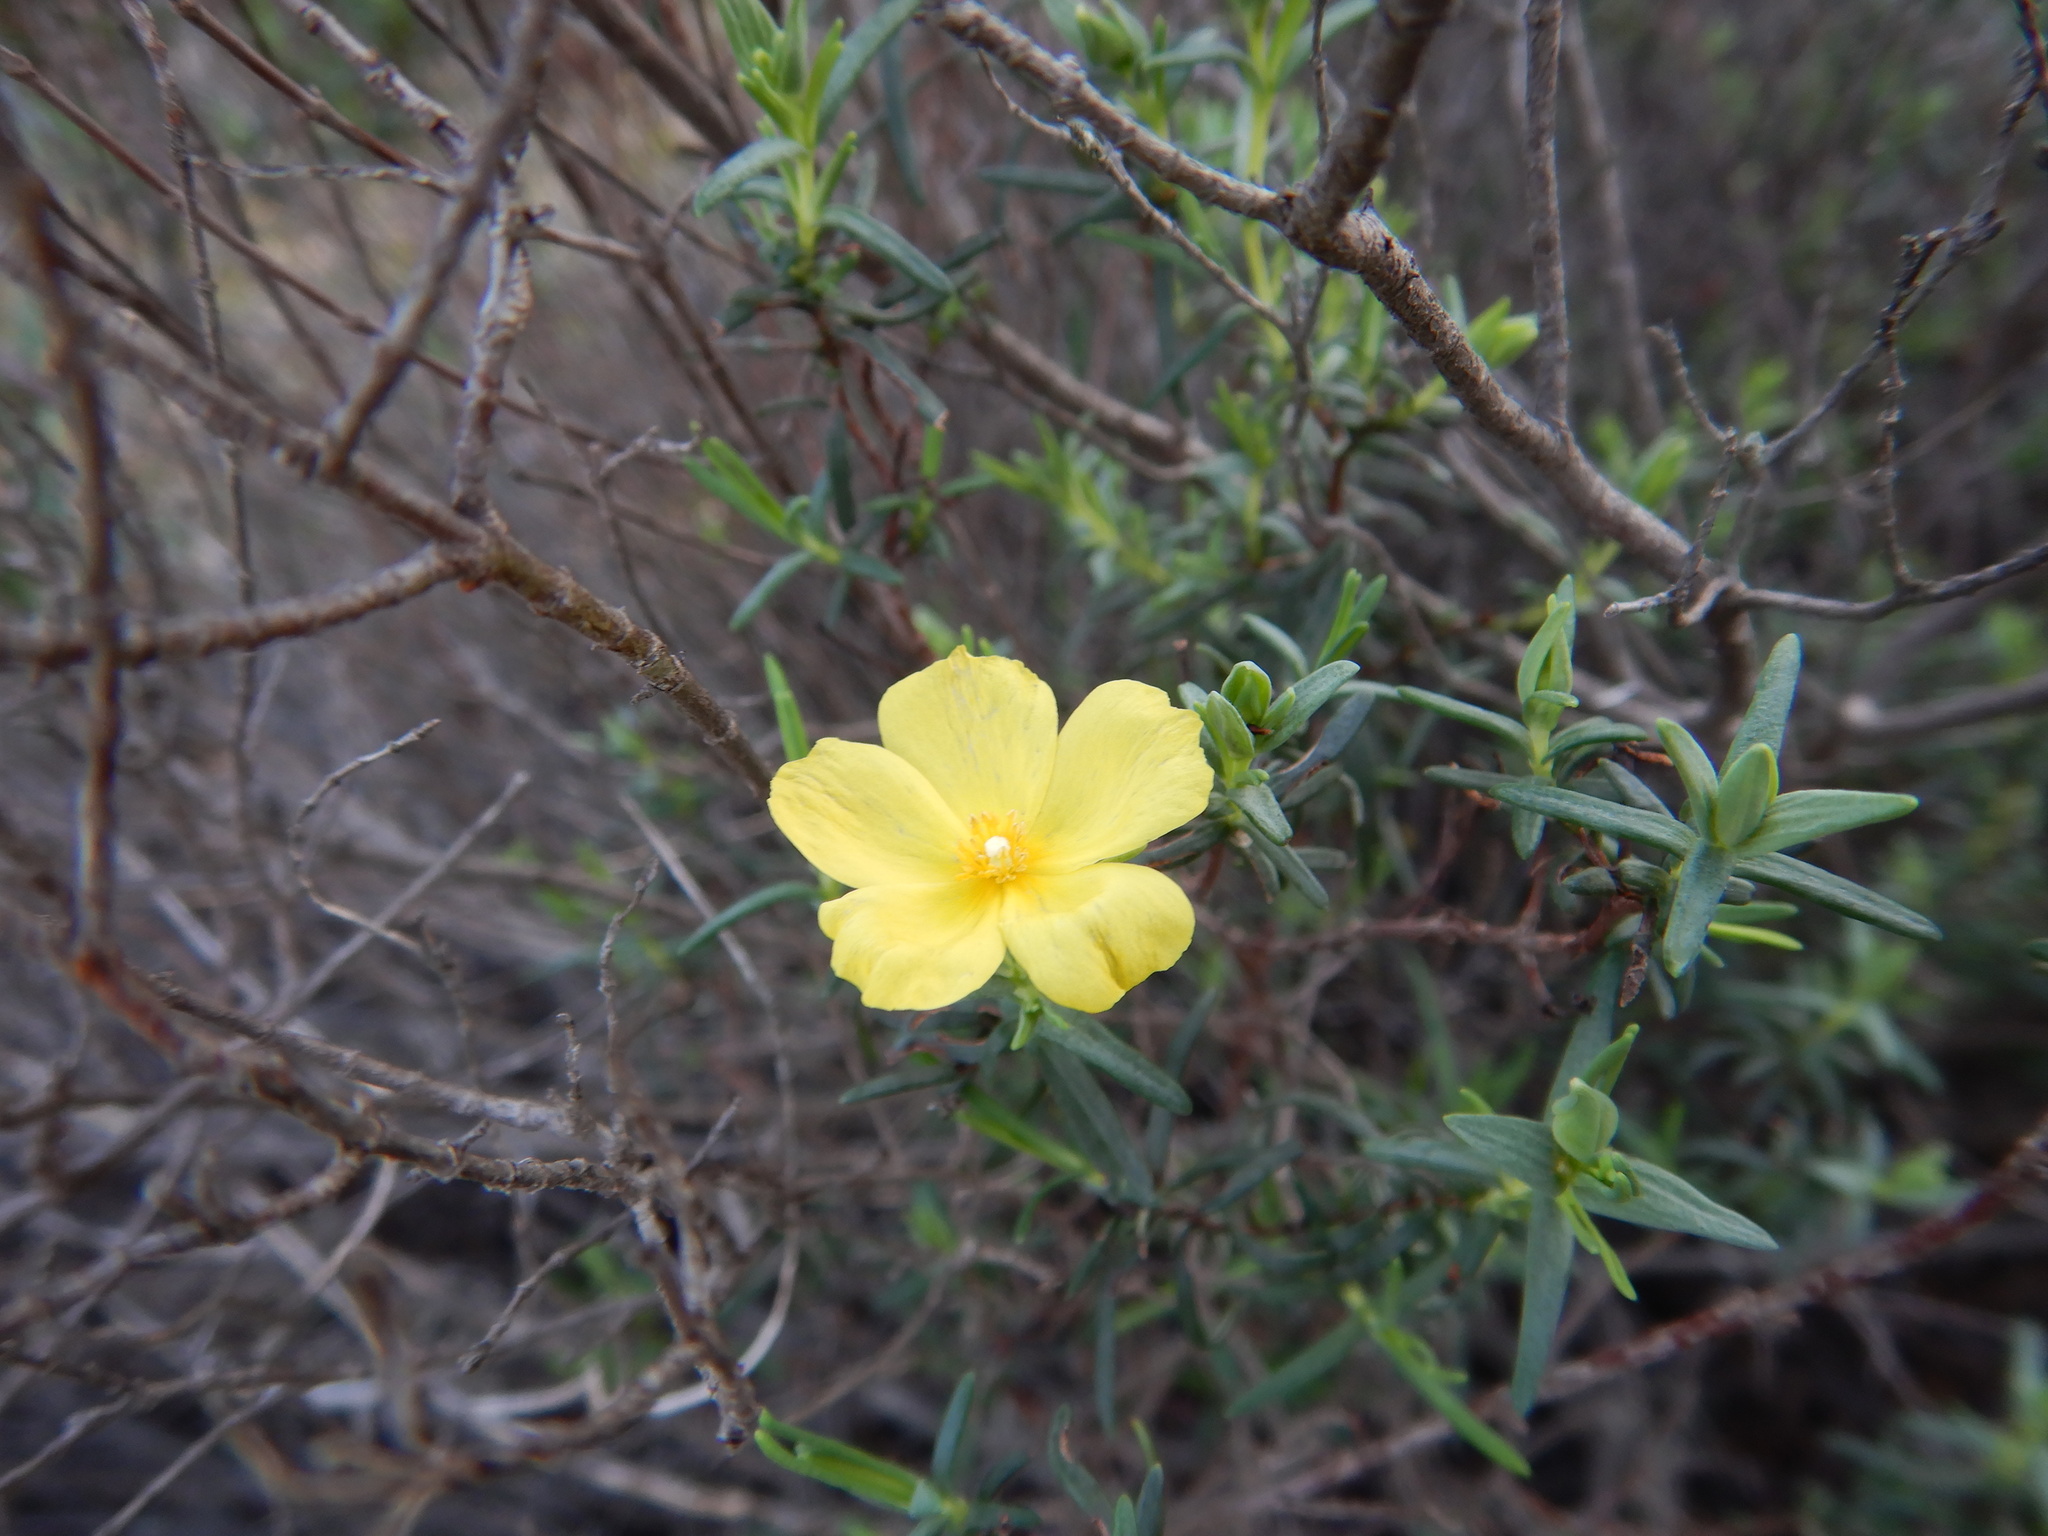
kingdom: Plantae
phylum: Tracheophyta
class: Magnoliopsida
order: Malvales
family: Cistaceae
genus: Halimium
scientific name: Halimium calycinum
